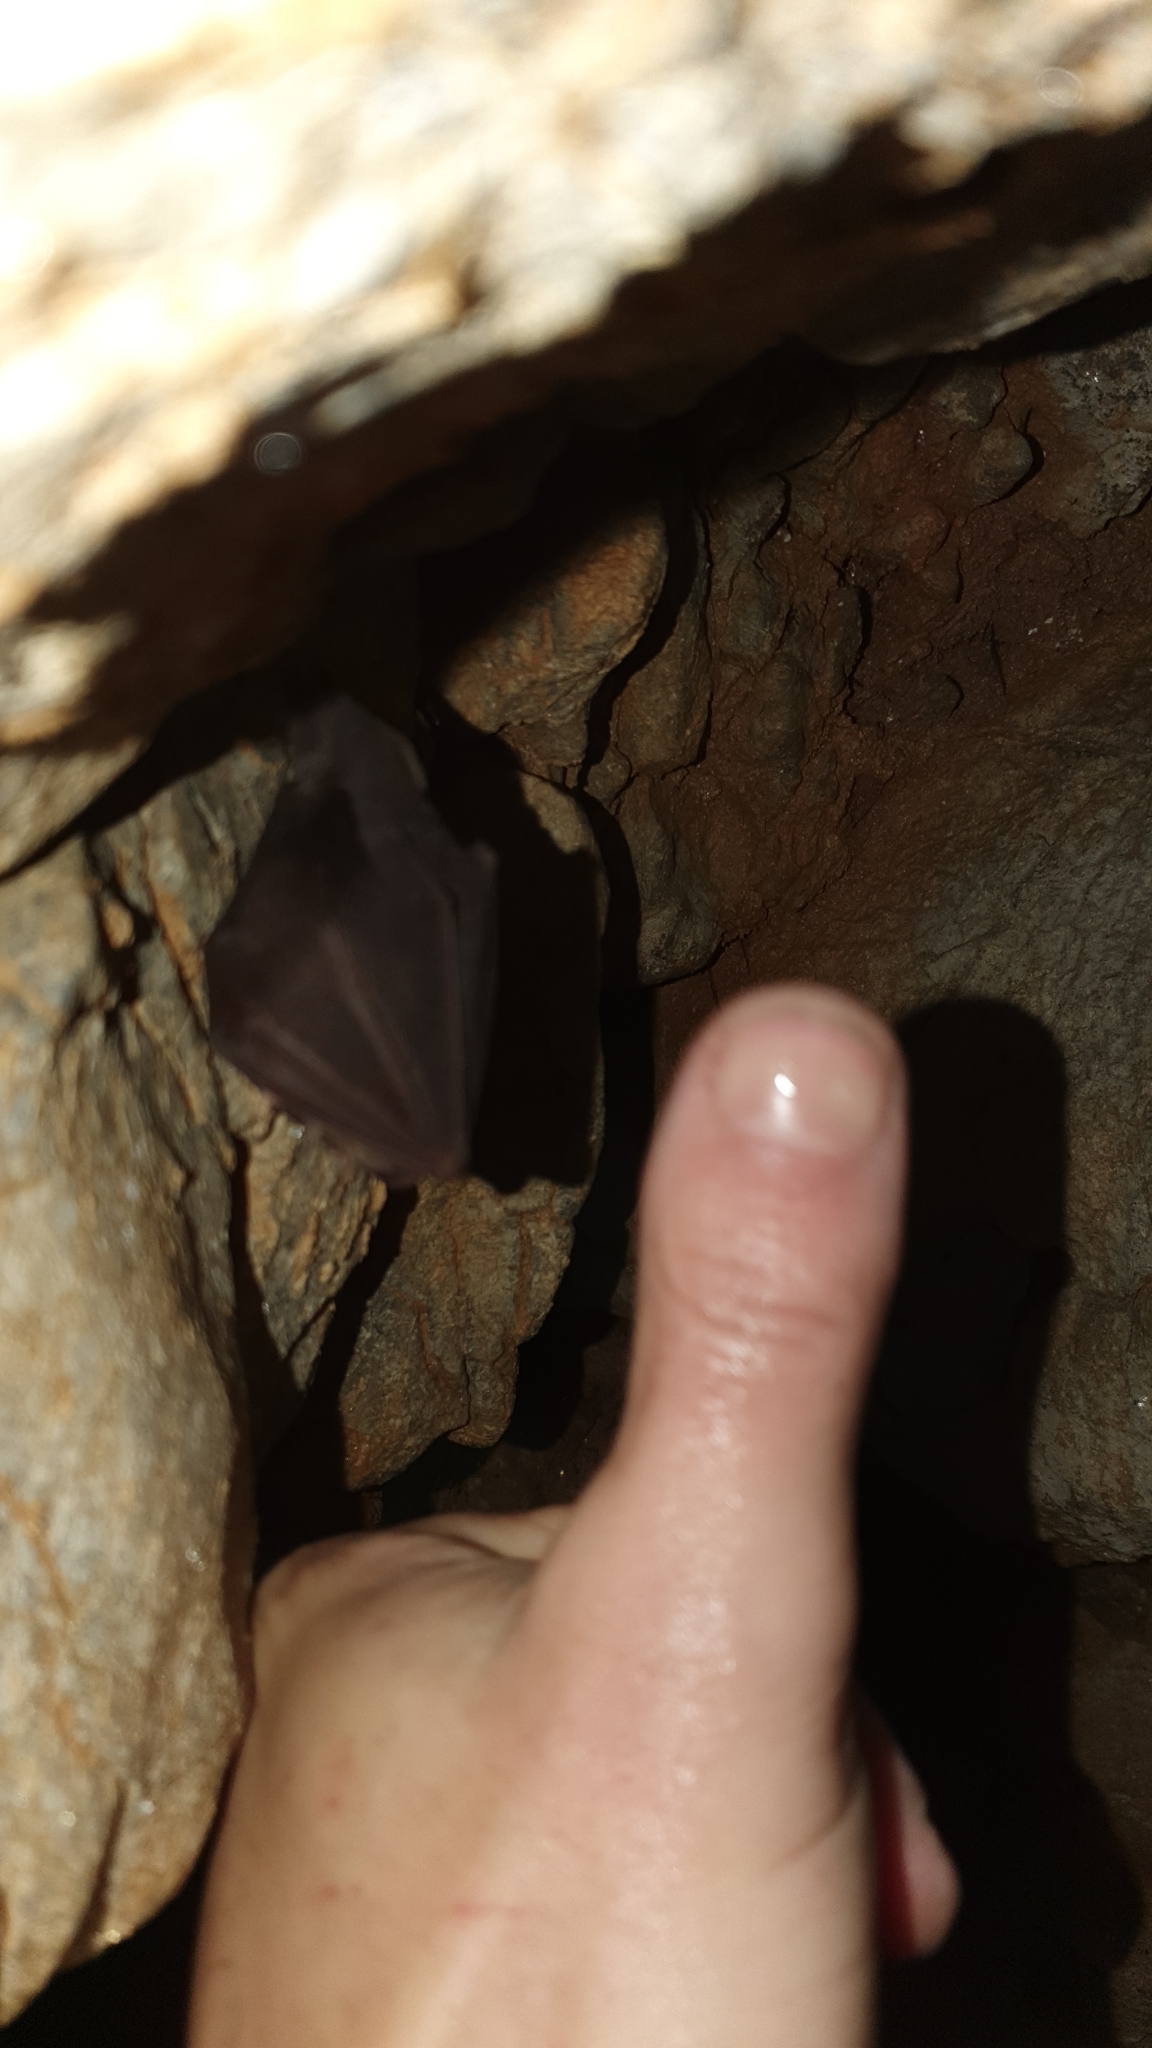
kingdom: Animalia
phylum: Chordata
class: Mammalia
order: Chiroptera
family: Rhinolophidae
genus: Rhinolophus
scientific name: Rhinolophus hipposideros
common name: Lesser horseshoe bat
